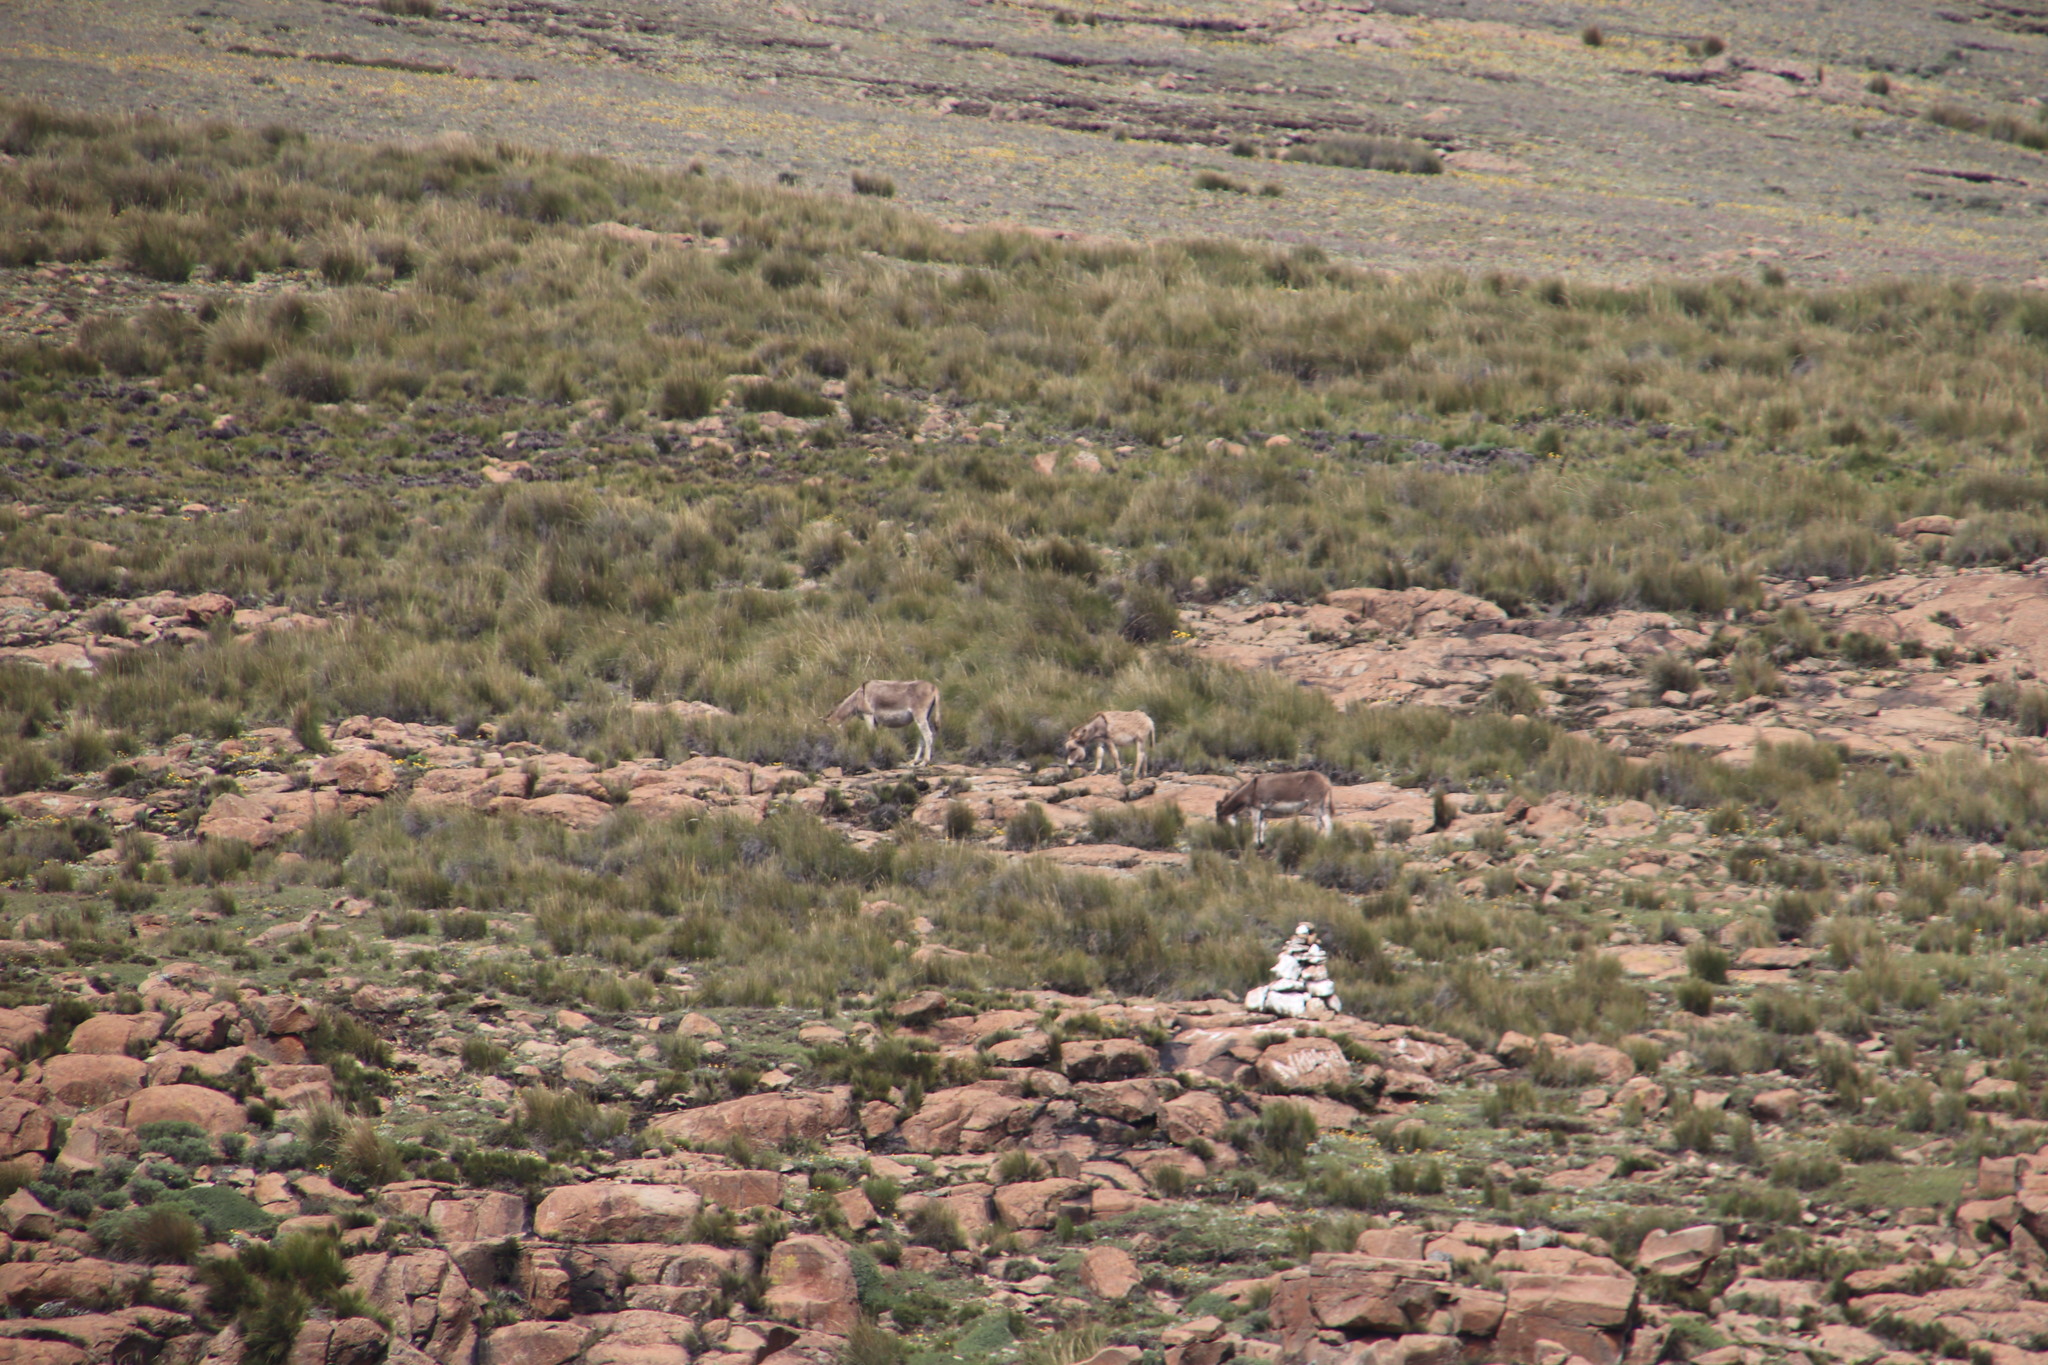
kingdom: Animalia
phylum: Chordata
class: Mammalia
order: Perissodactyla
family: Equidae
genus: Equus
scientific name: Equus asinus
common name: Ass
